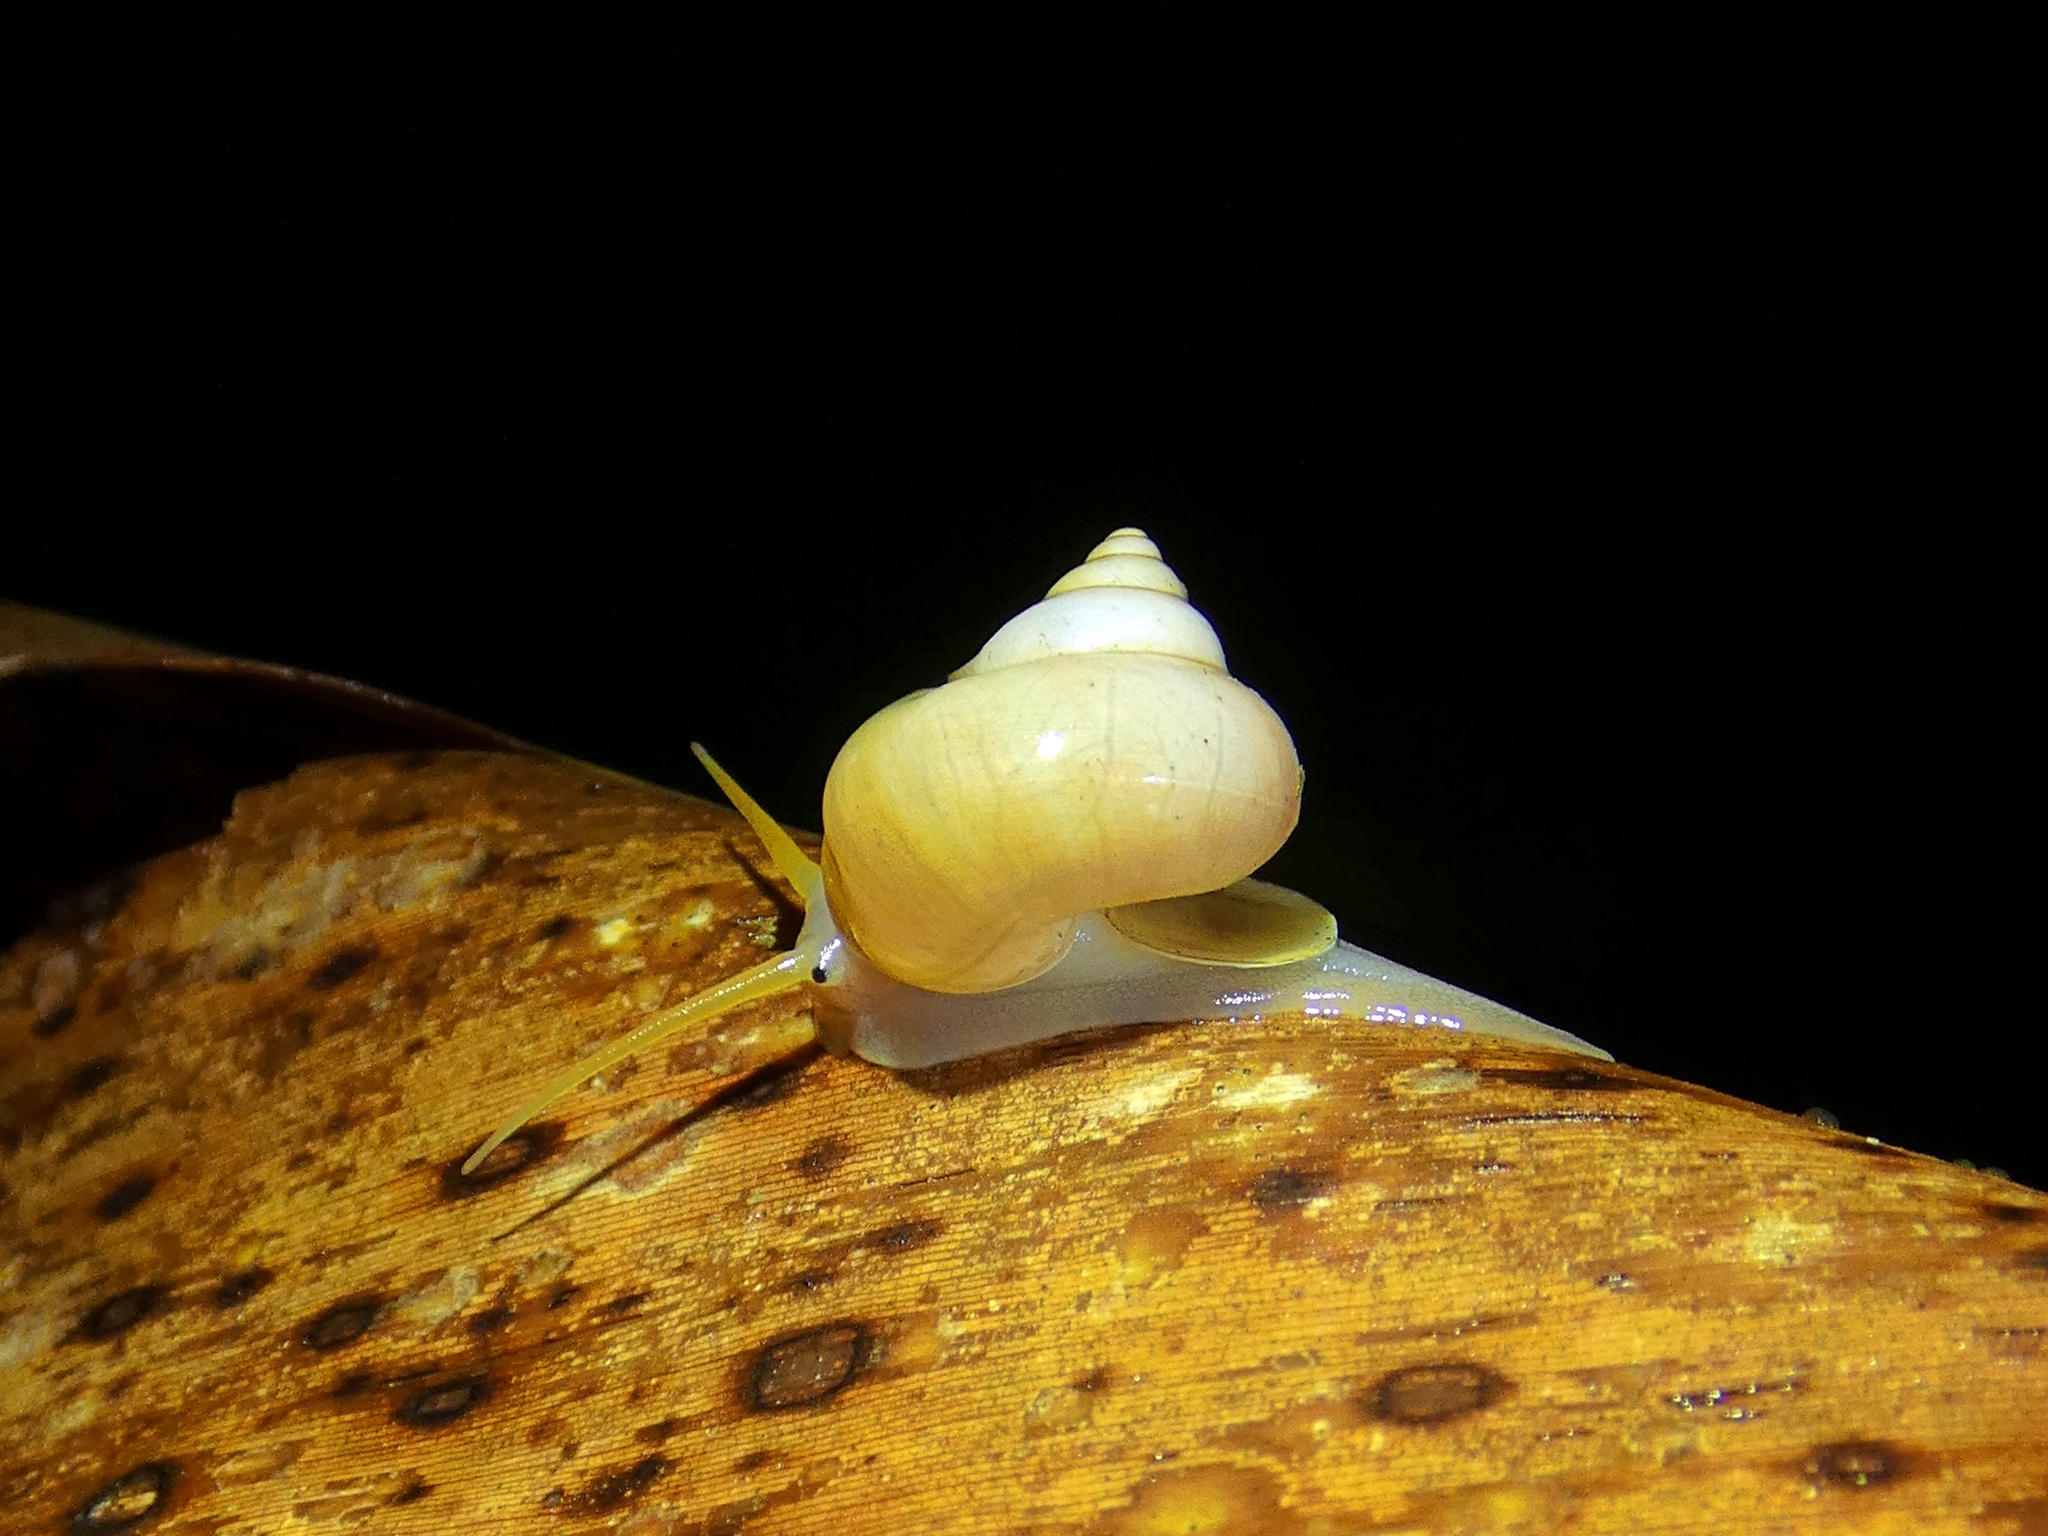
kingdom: Animalia
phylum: Mollusca
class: Gastropoda
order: Architaenioglossa
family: Cyclophoridae
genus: Leptopoma
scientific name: Leptopoma perlucidum
